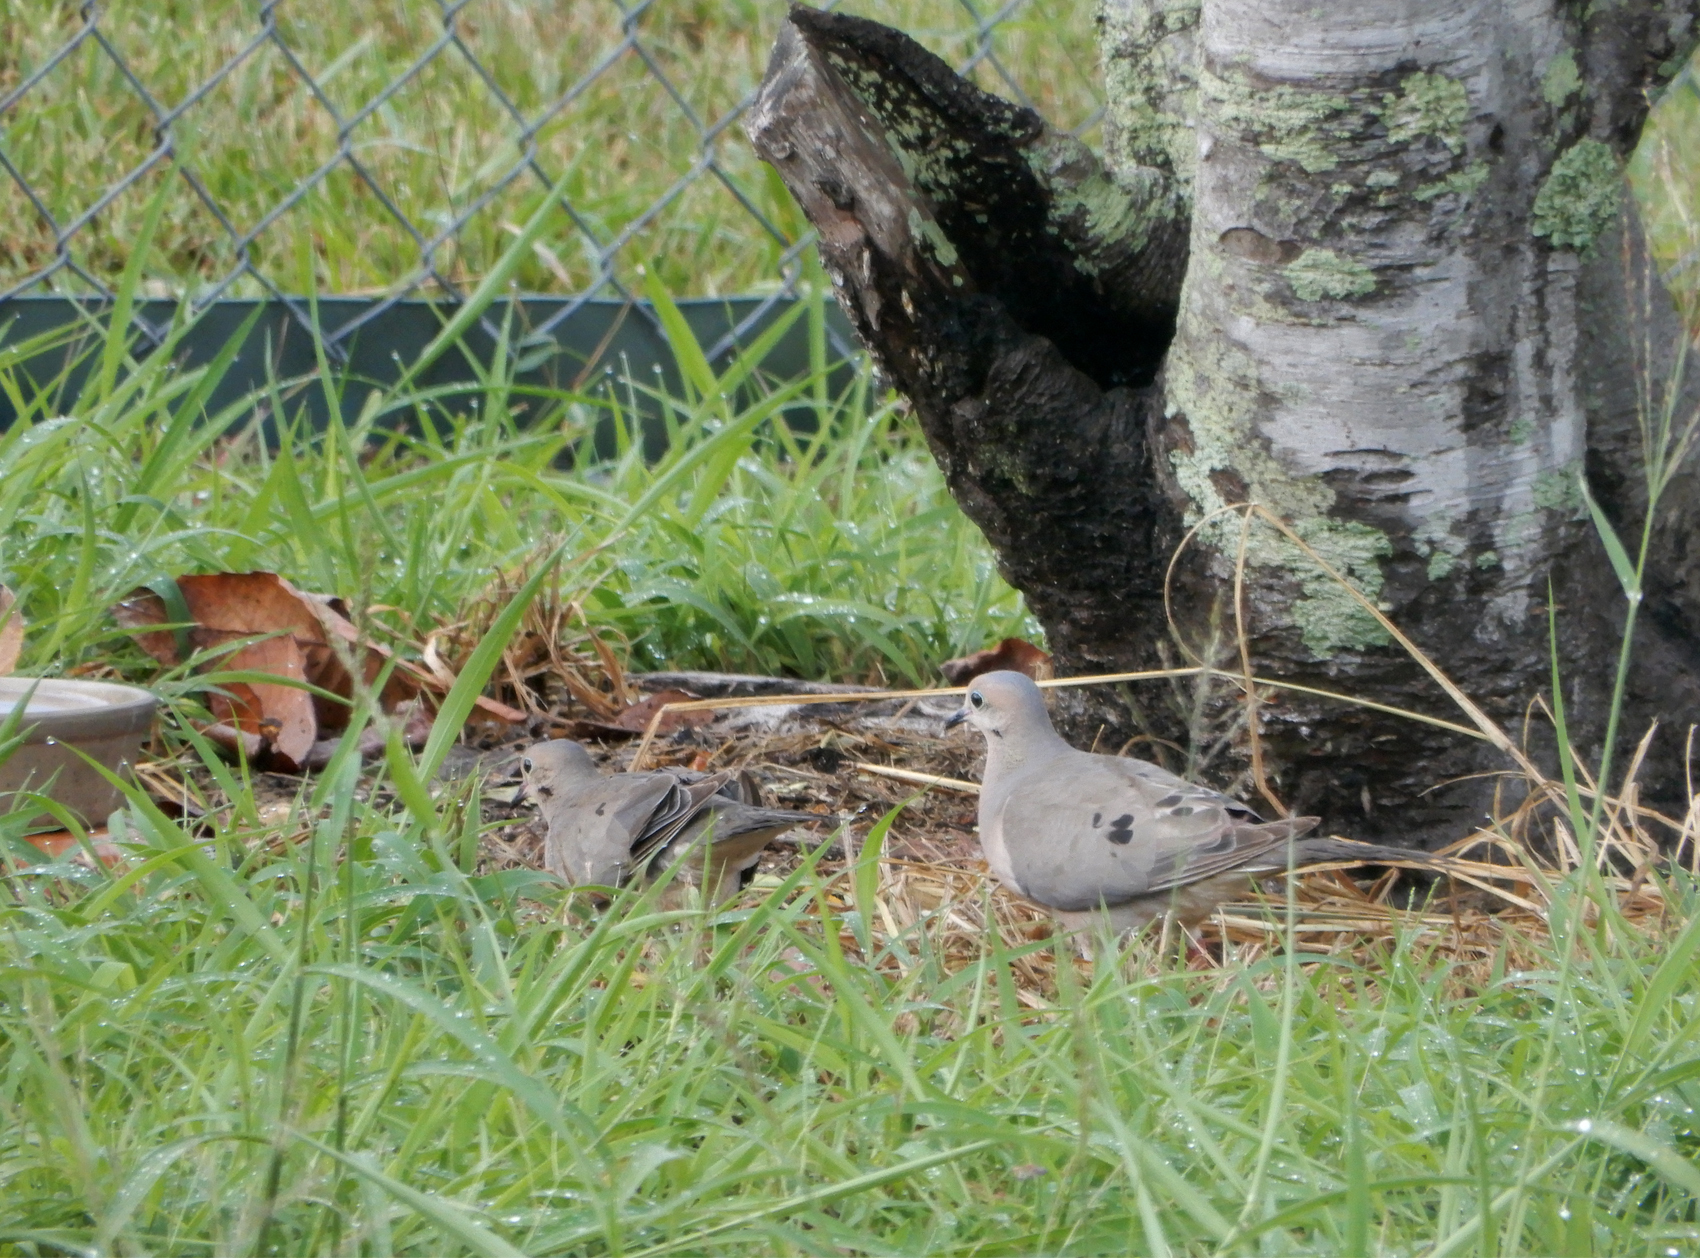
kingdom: Animalia
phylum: Chordata
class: Aves
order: Columbiformes
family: Columbidae
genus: Zenaida
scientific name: Zenaida macroura
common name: Mourning dove
